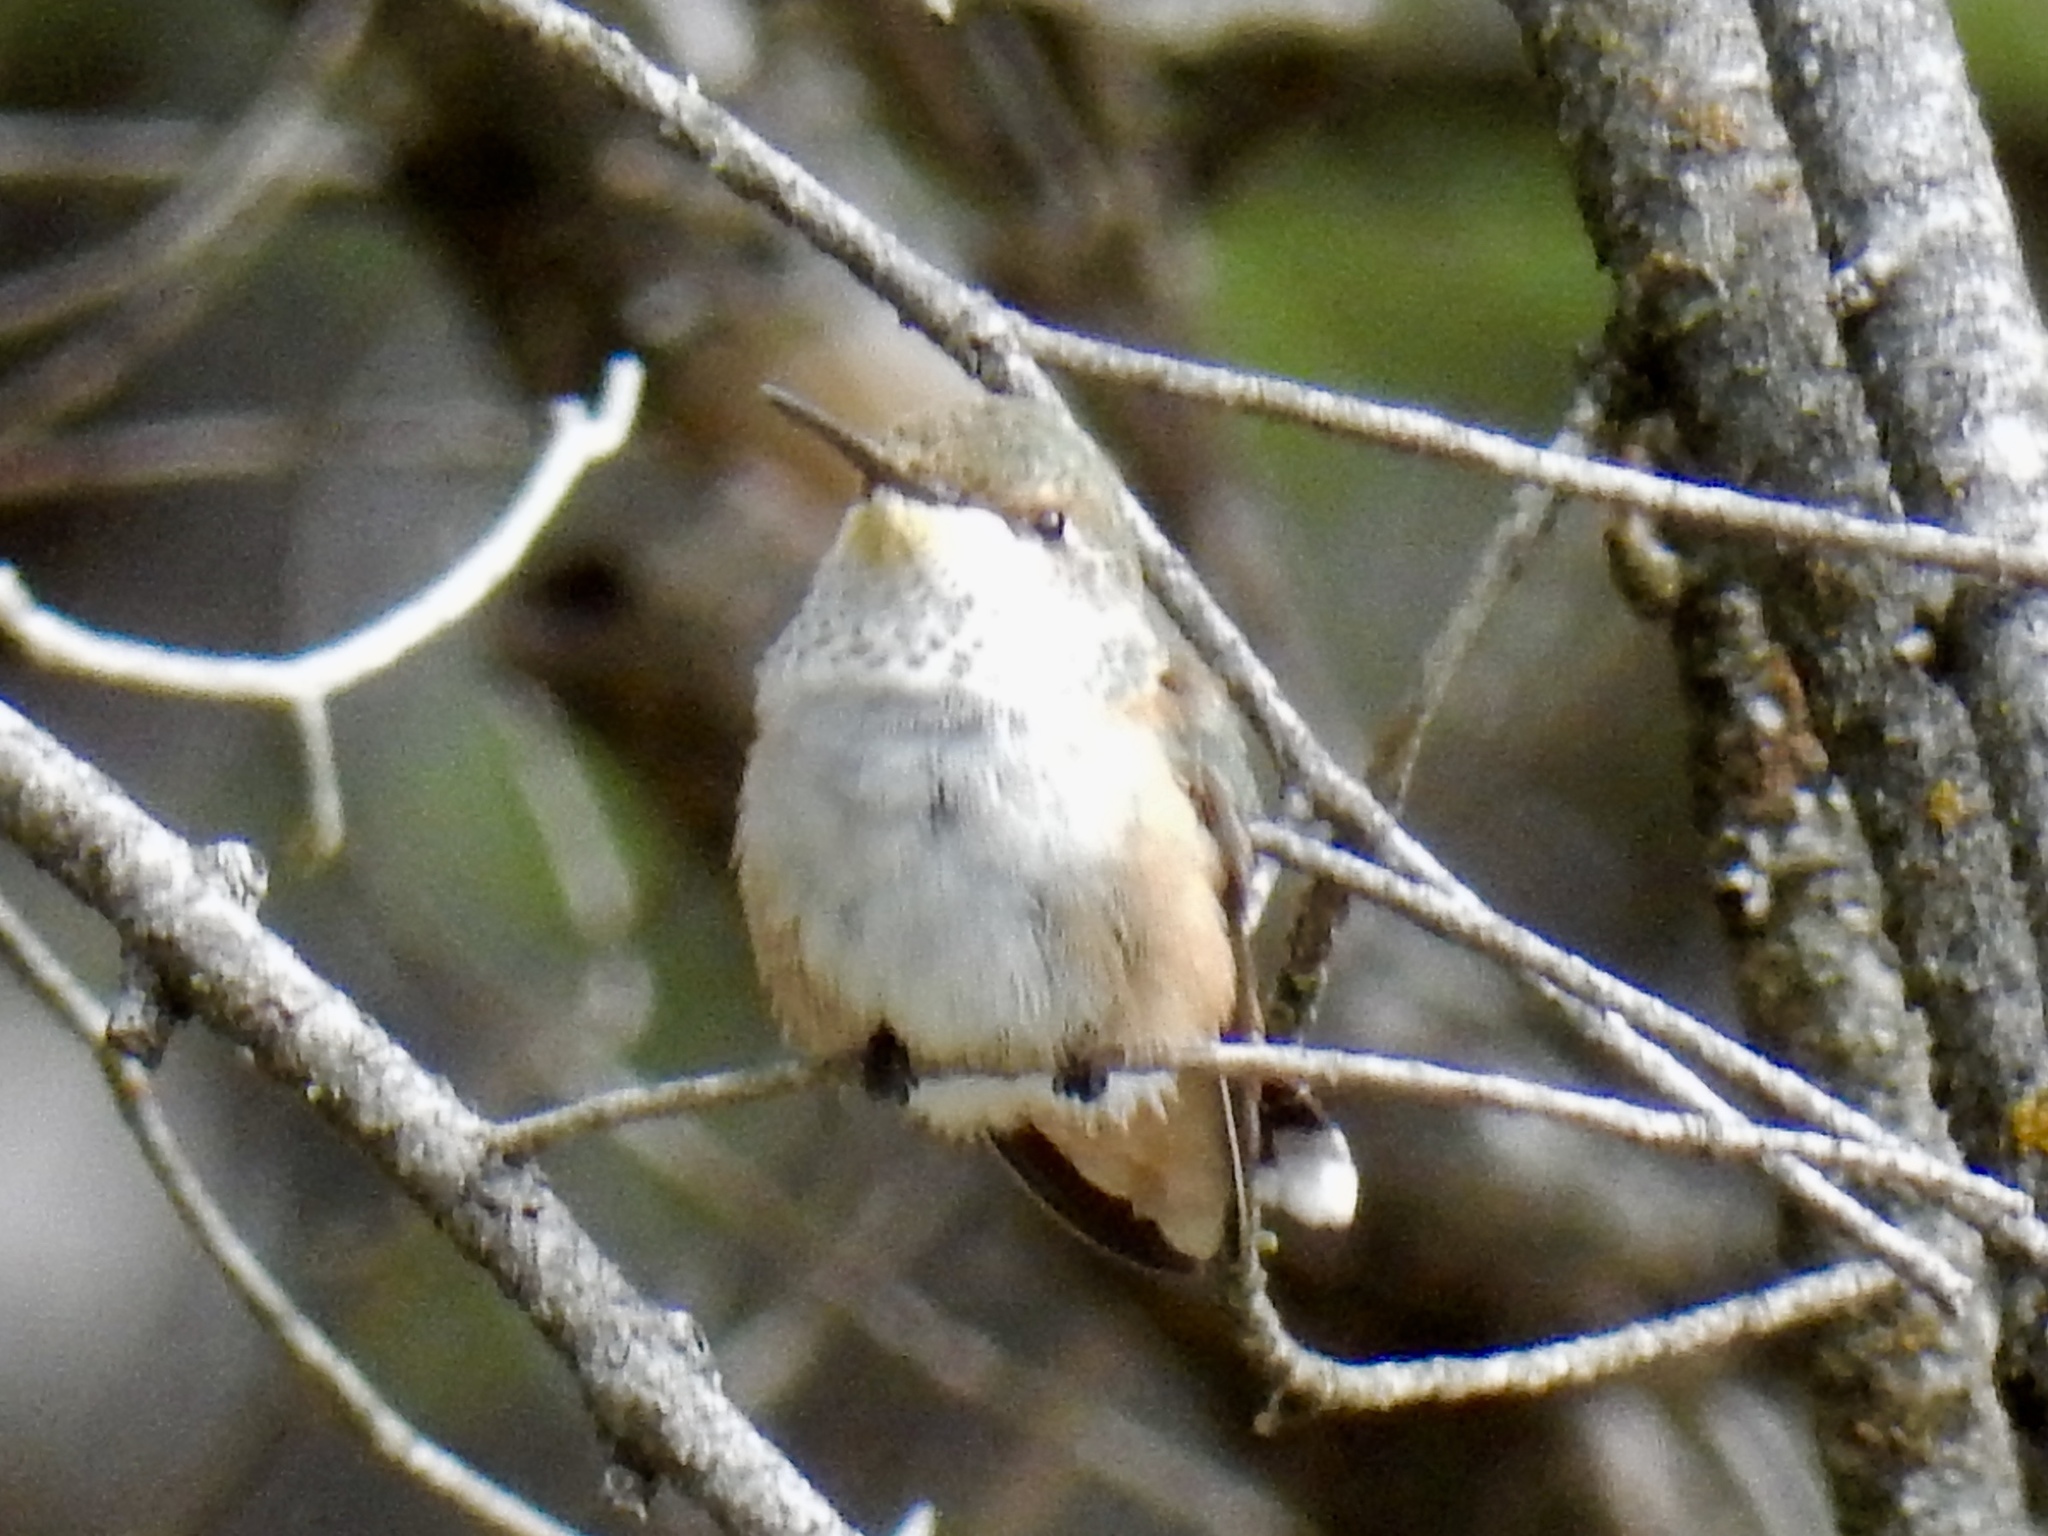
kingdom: Animalia
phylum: Chordata
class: Aves
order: Apodiformes
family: Trochilidae
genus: Selasphorus
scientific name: Selasphorus rufus
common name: Rufous hummingbird
